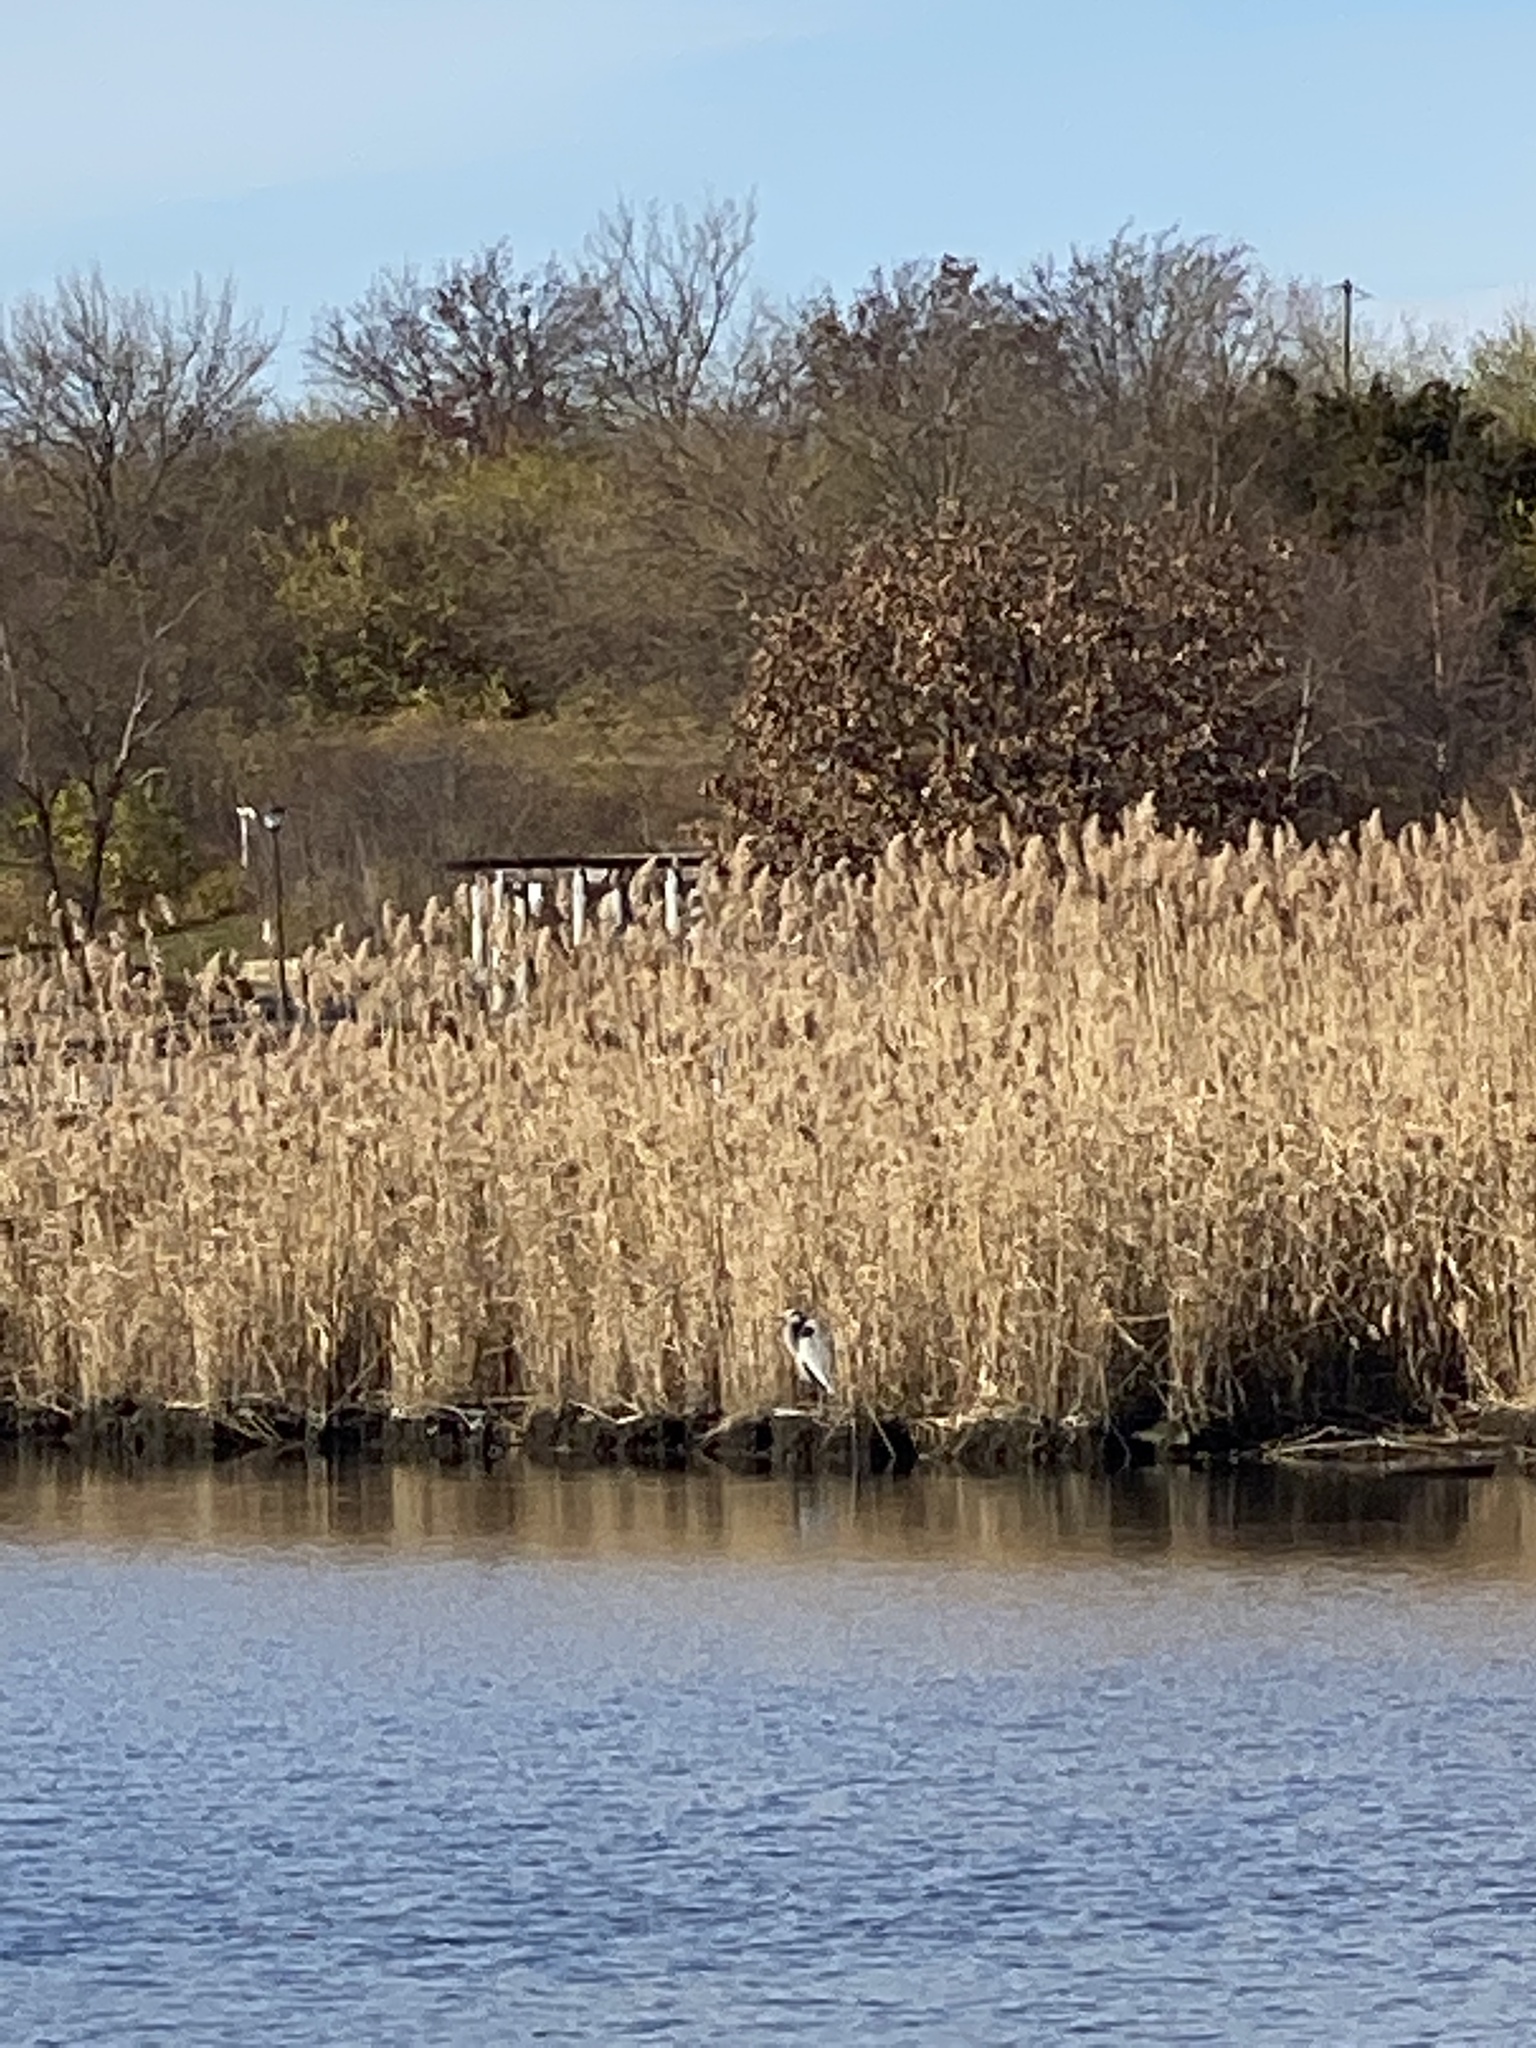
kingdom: Animalia
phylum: Chordata
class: Aves
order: Pelecaniformes
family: Ardeidae
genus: Ardea
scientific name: Ardea herodias
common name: Great blue heron
